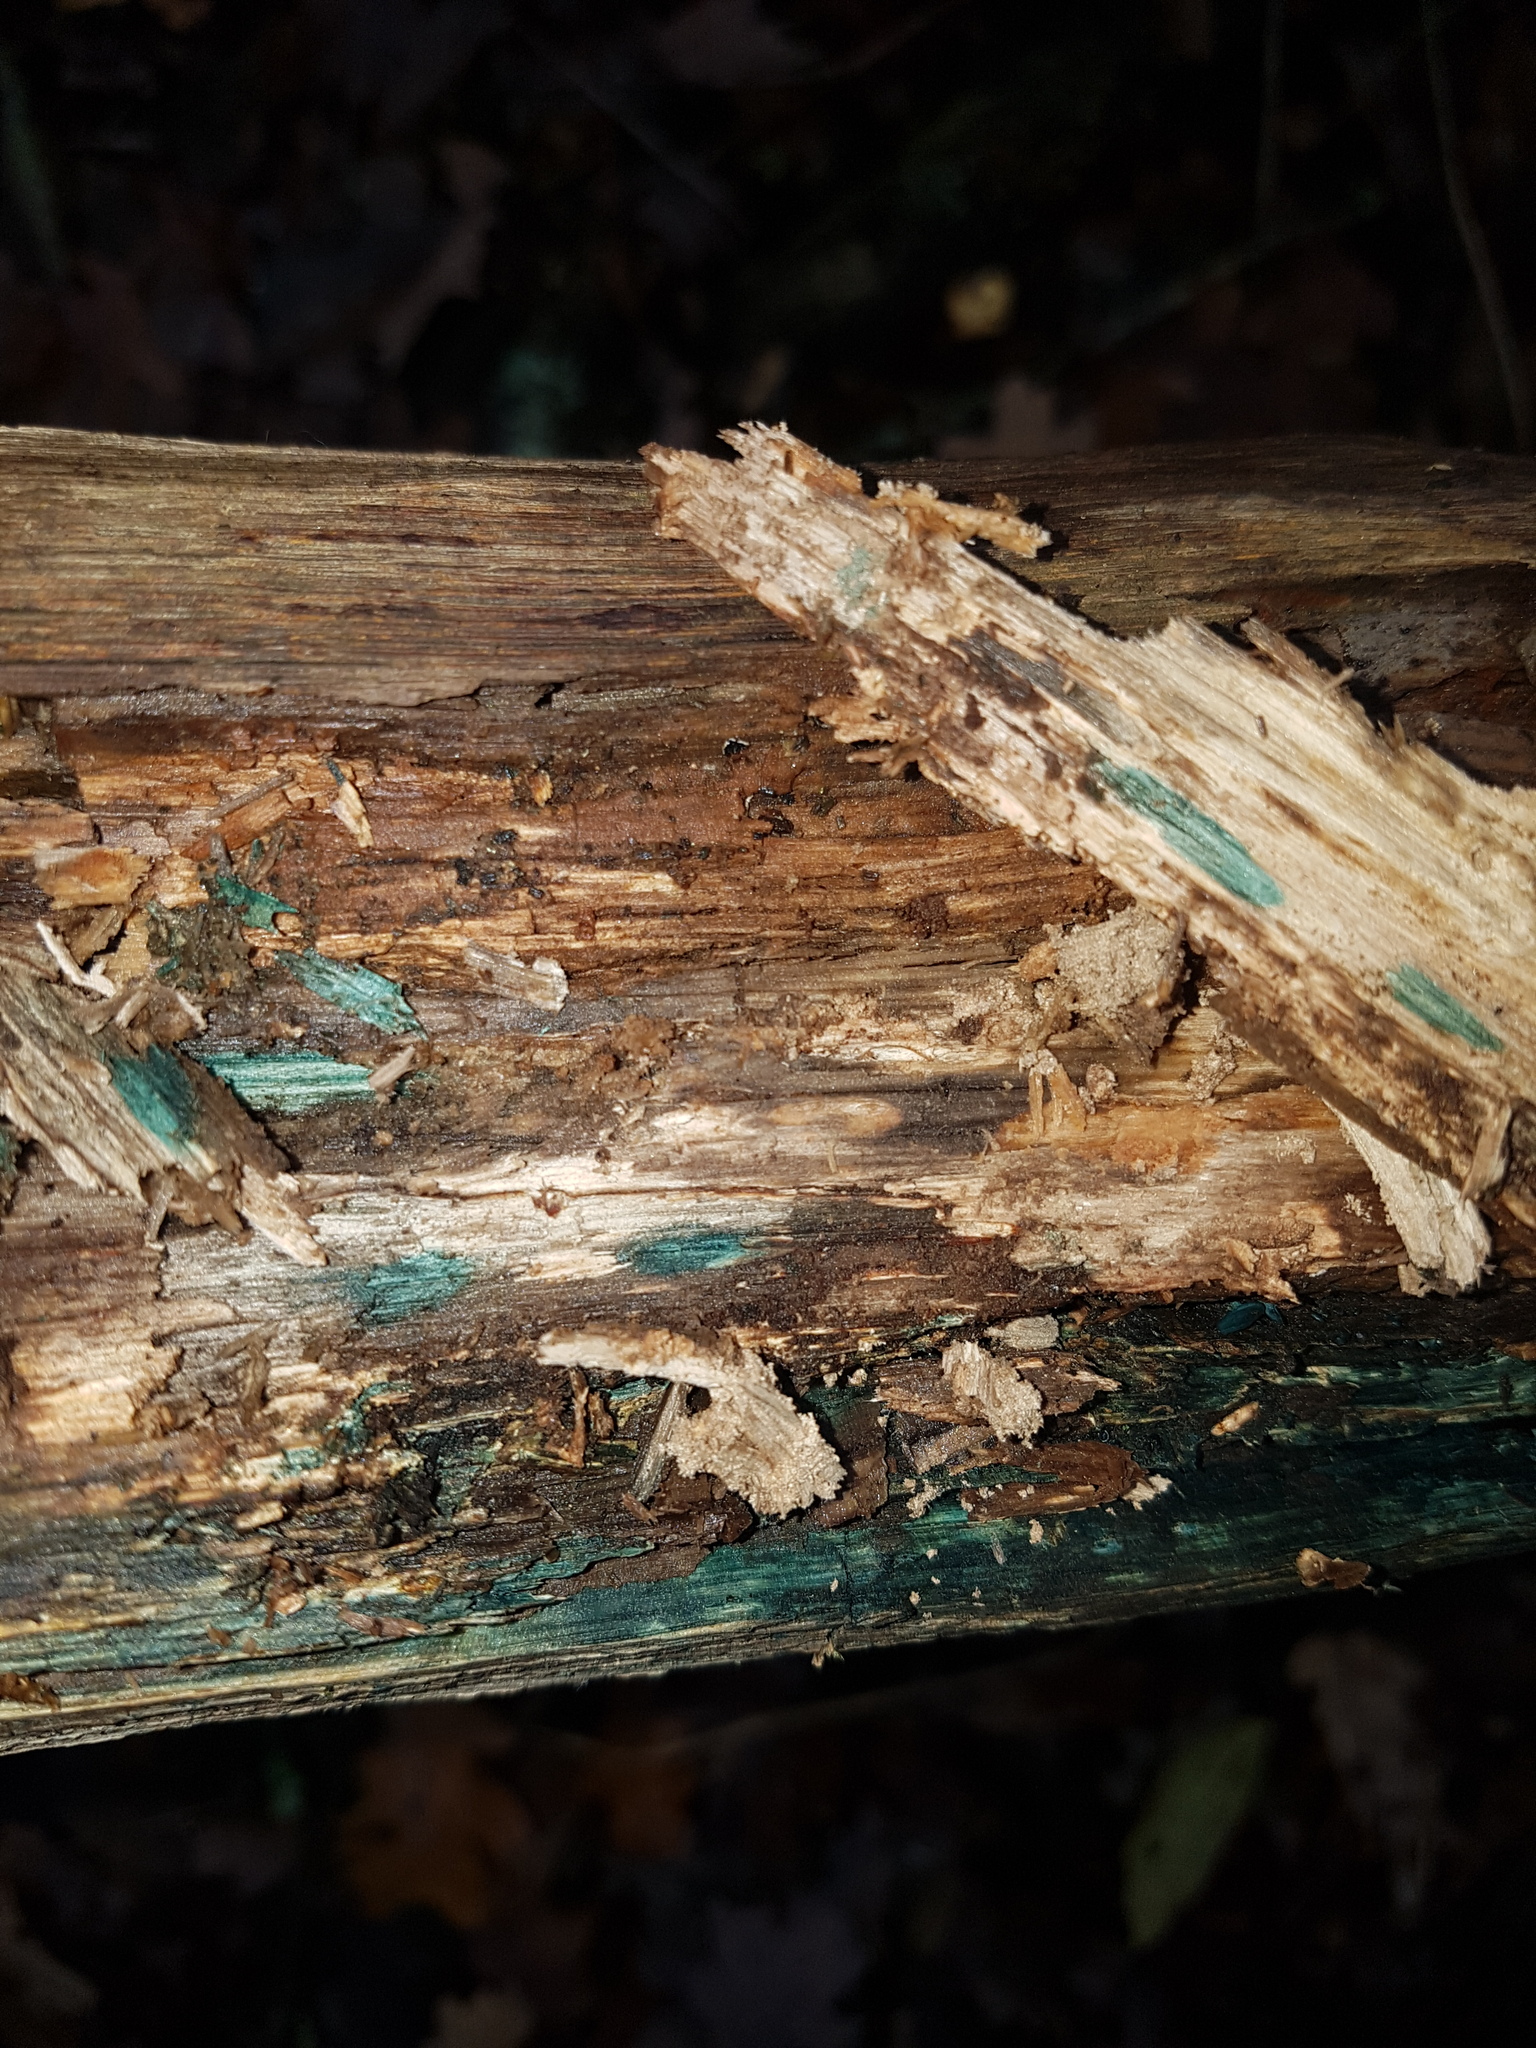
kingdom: Fungi
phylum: Ascomycota
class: Leotiomycetes
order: Helotiales
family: Chlorociboriaceae
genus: Chlorociboria
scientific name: Chlorociboria aeruginascens
